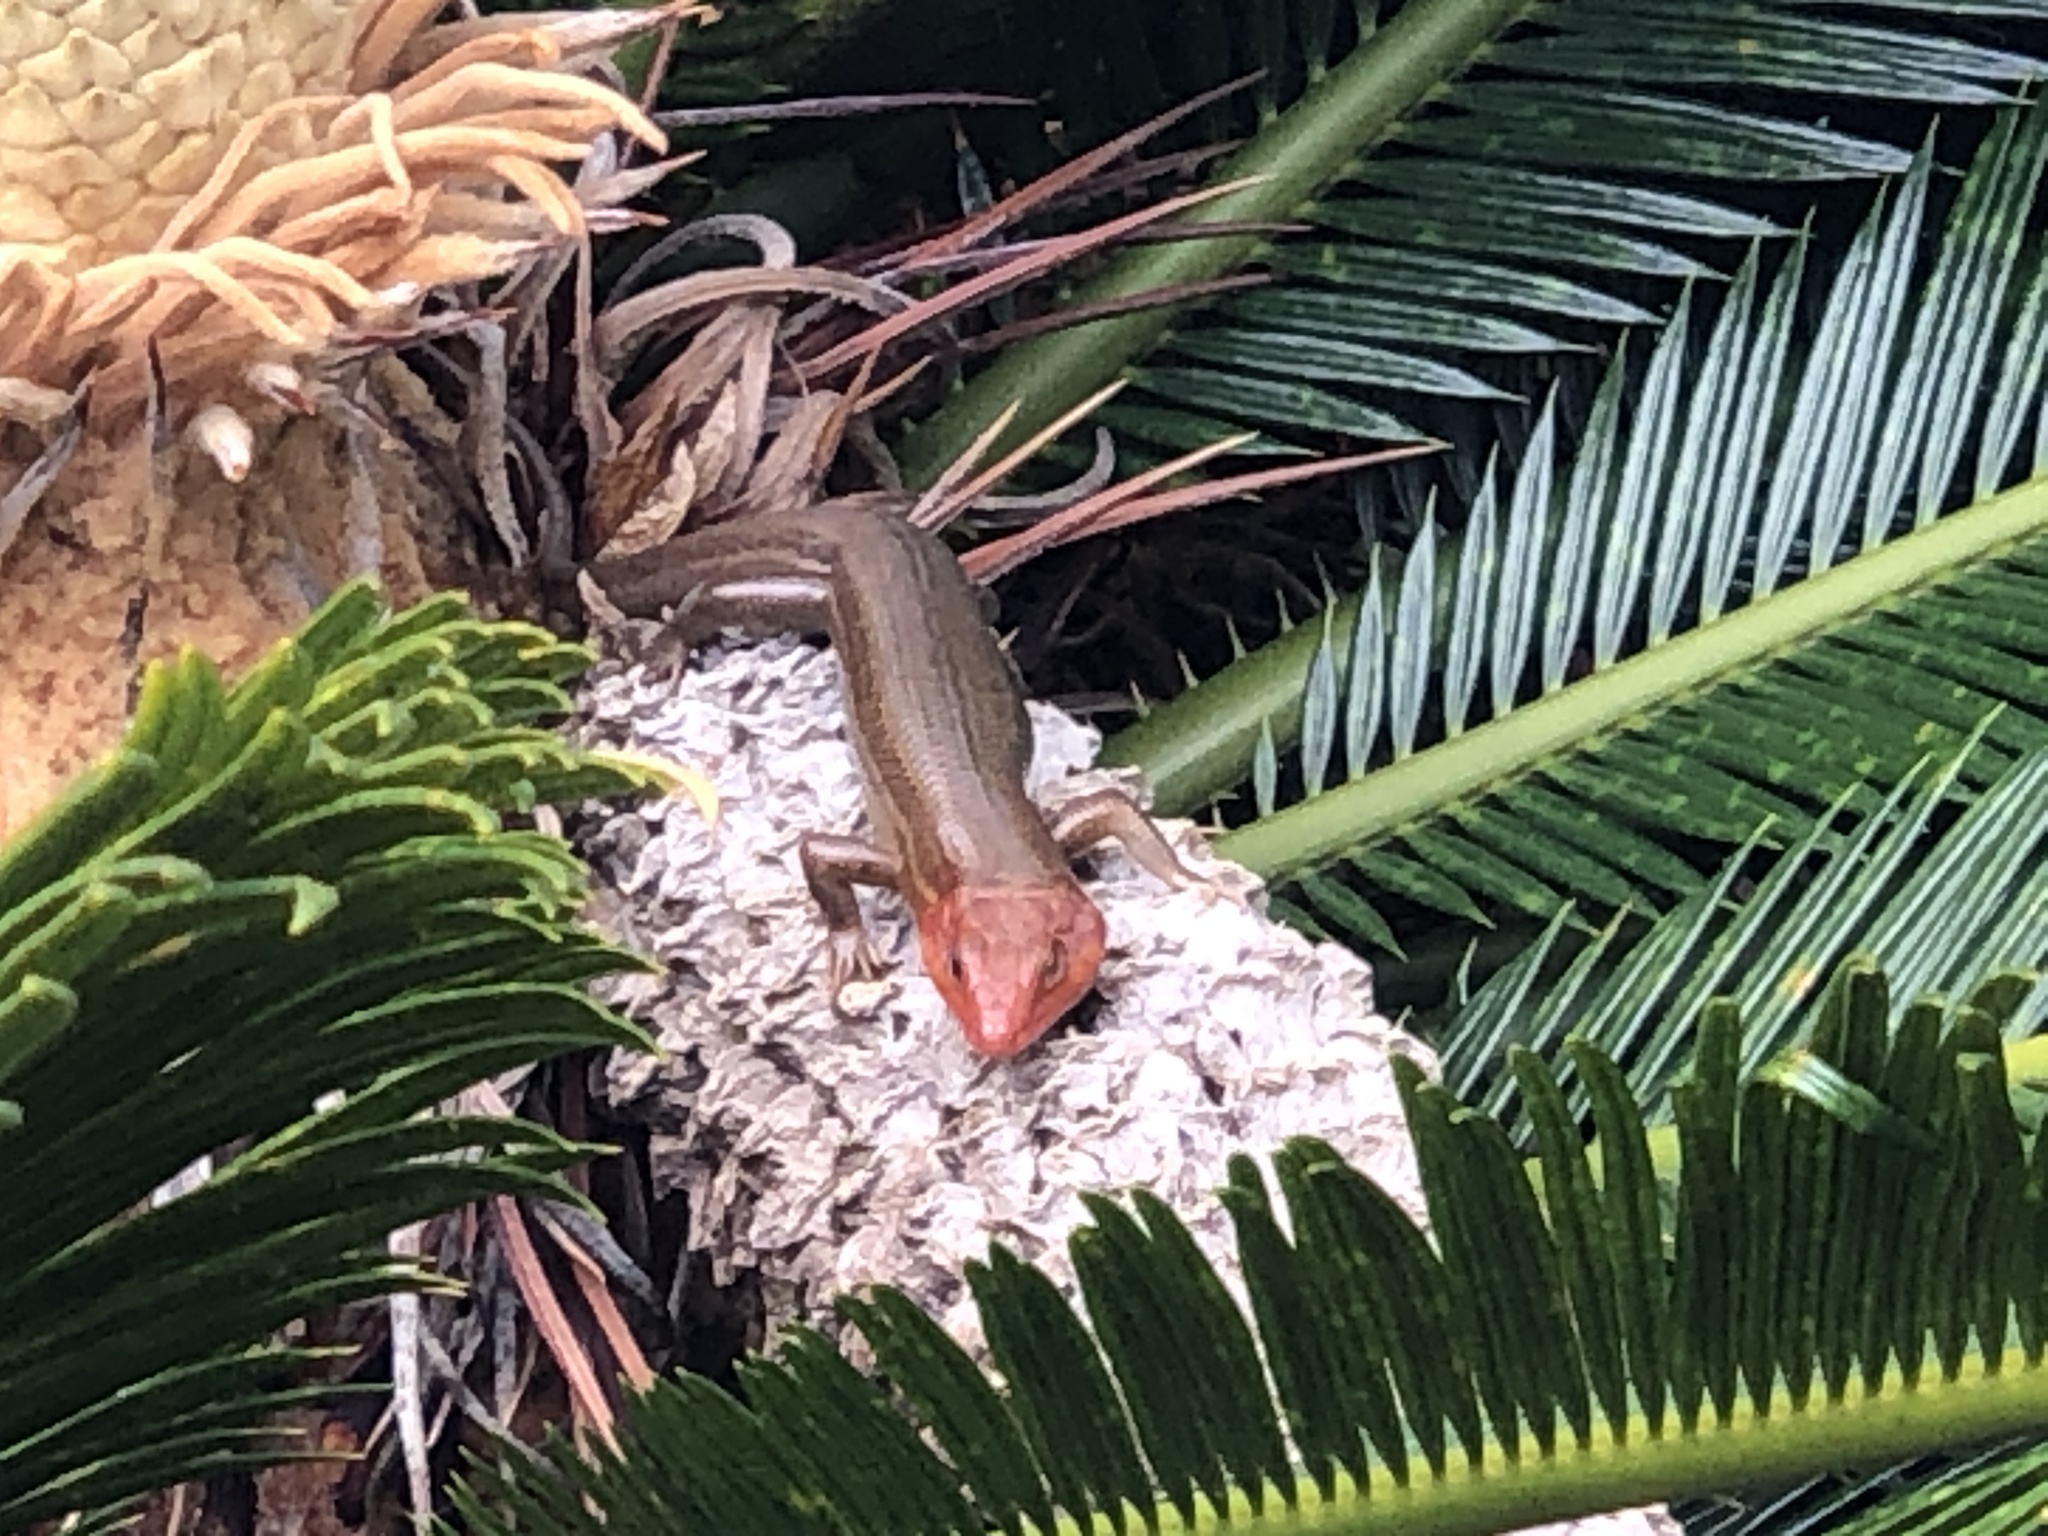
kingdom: Animalia
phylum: Chordata
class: Squamata
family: Scincidae
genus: Plestiodon
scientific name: Plestiodon laticeps
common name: Broadhead skink
